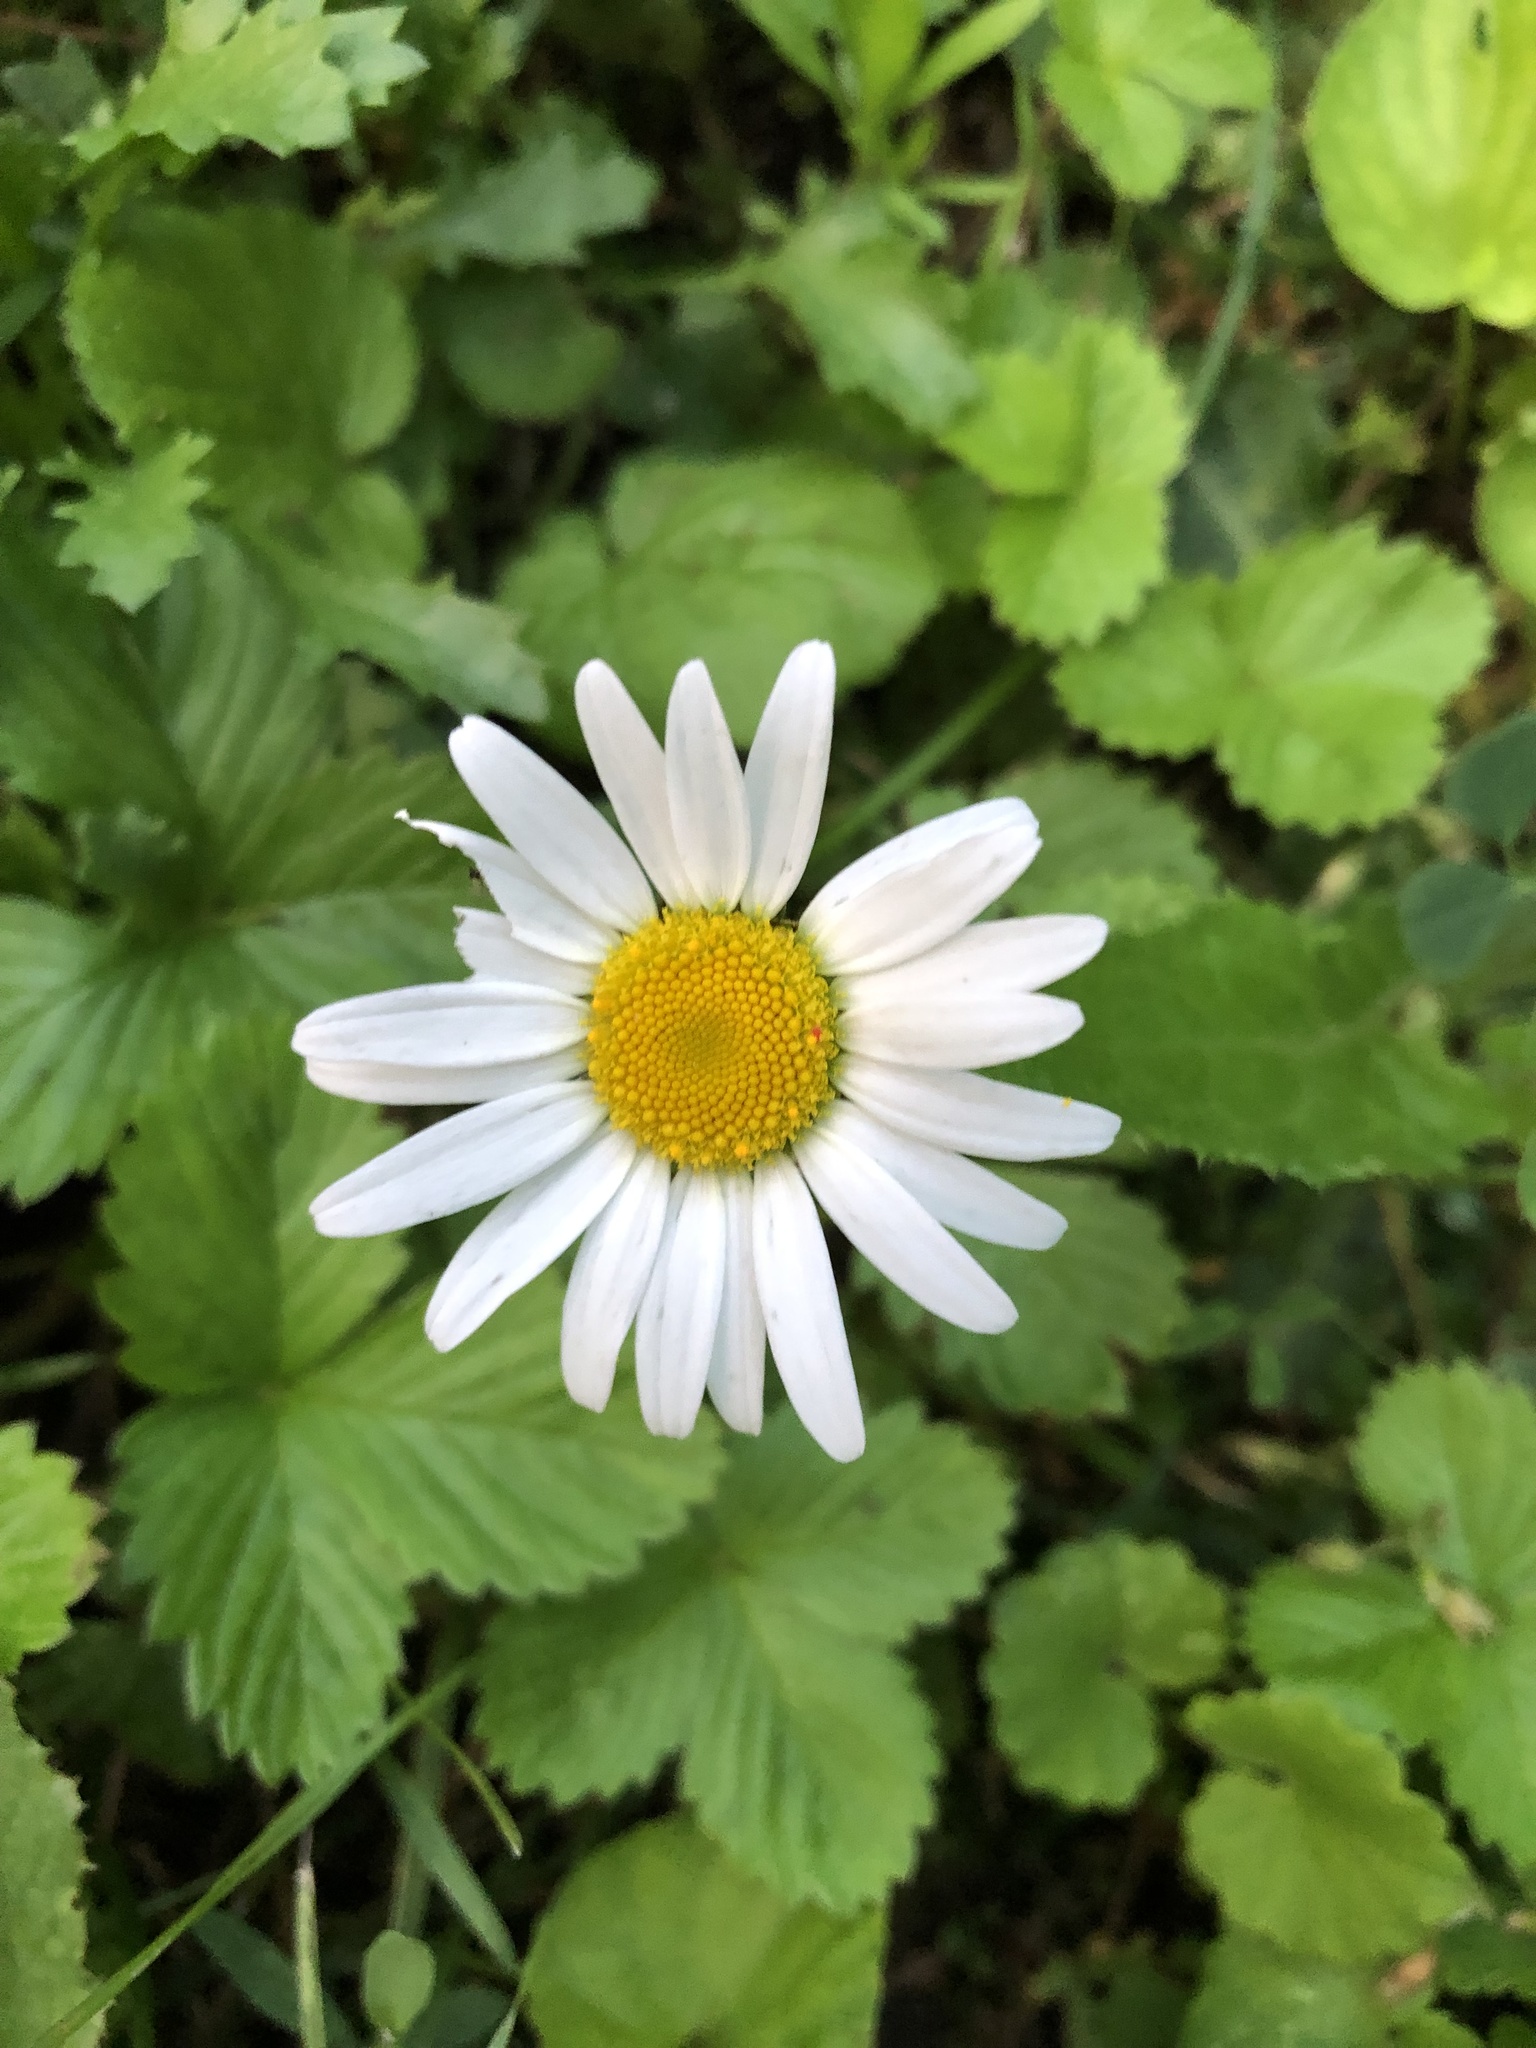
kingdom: Plantae
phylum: Tracheophyta
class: Magnoliopsida
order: Asterales
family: Asteraceae
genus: Leucanthemum
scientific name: Leucanthemum vulgare
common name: Oxeye daisy
